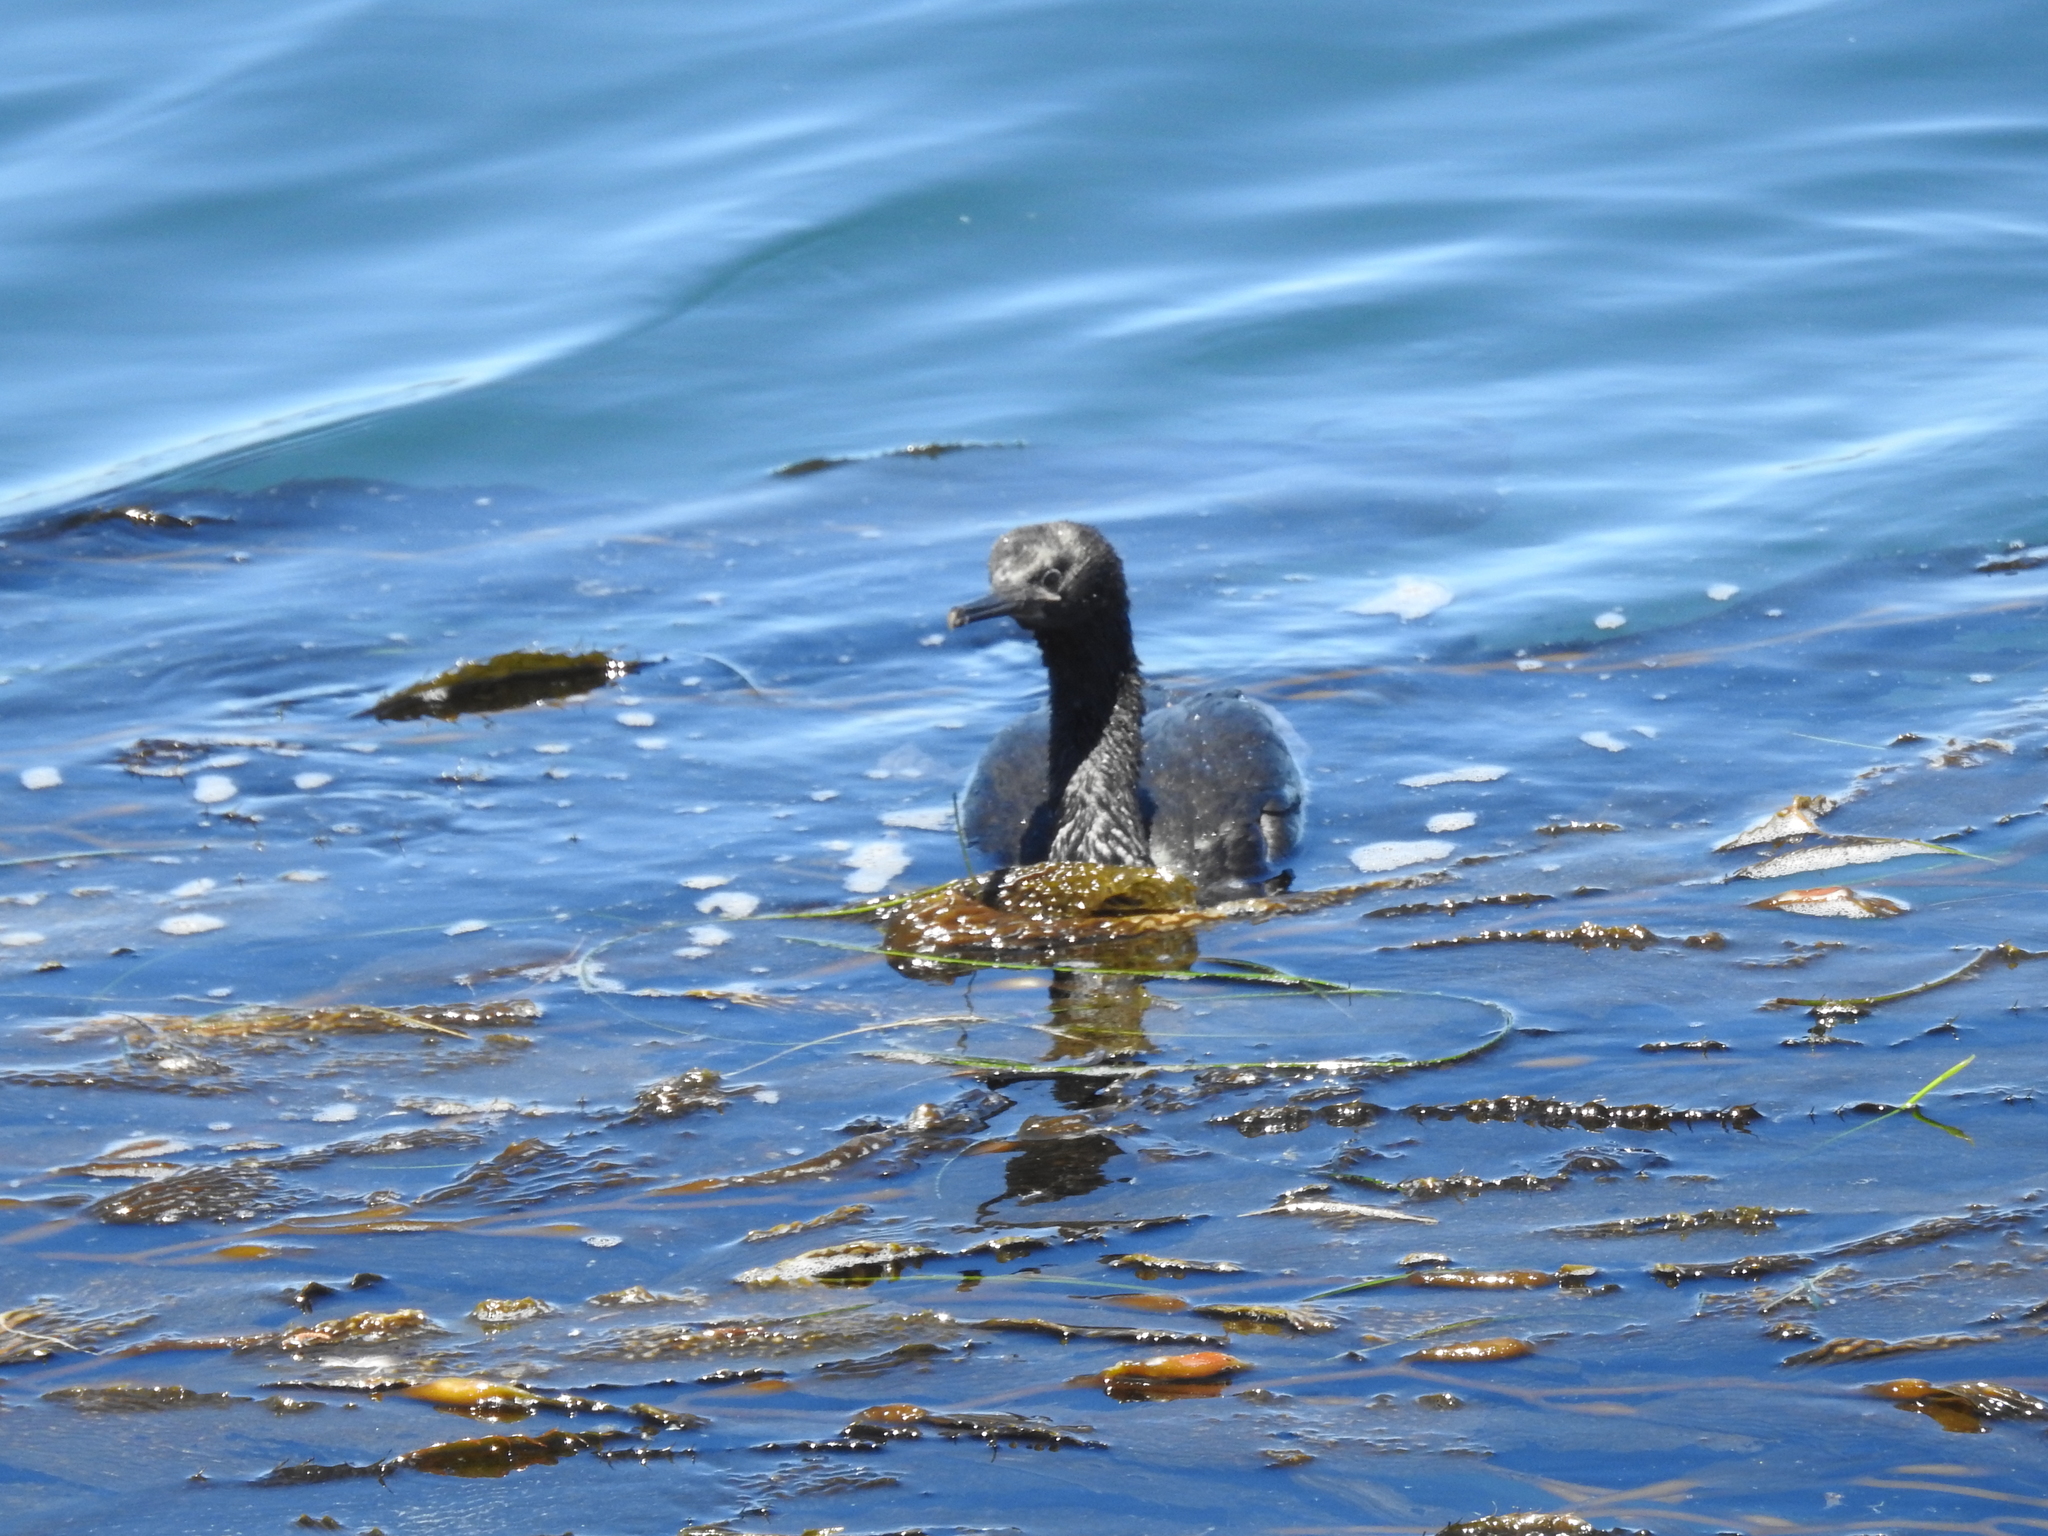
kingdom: Animalia
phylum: Chordata
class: Aves
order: Suliformes
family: Phalacrocoracidae
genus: Phalacrocorax
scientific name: Phalacrocorax pelagicus
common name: Pelagic cormorant
